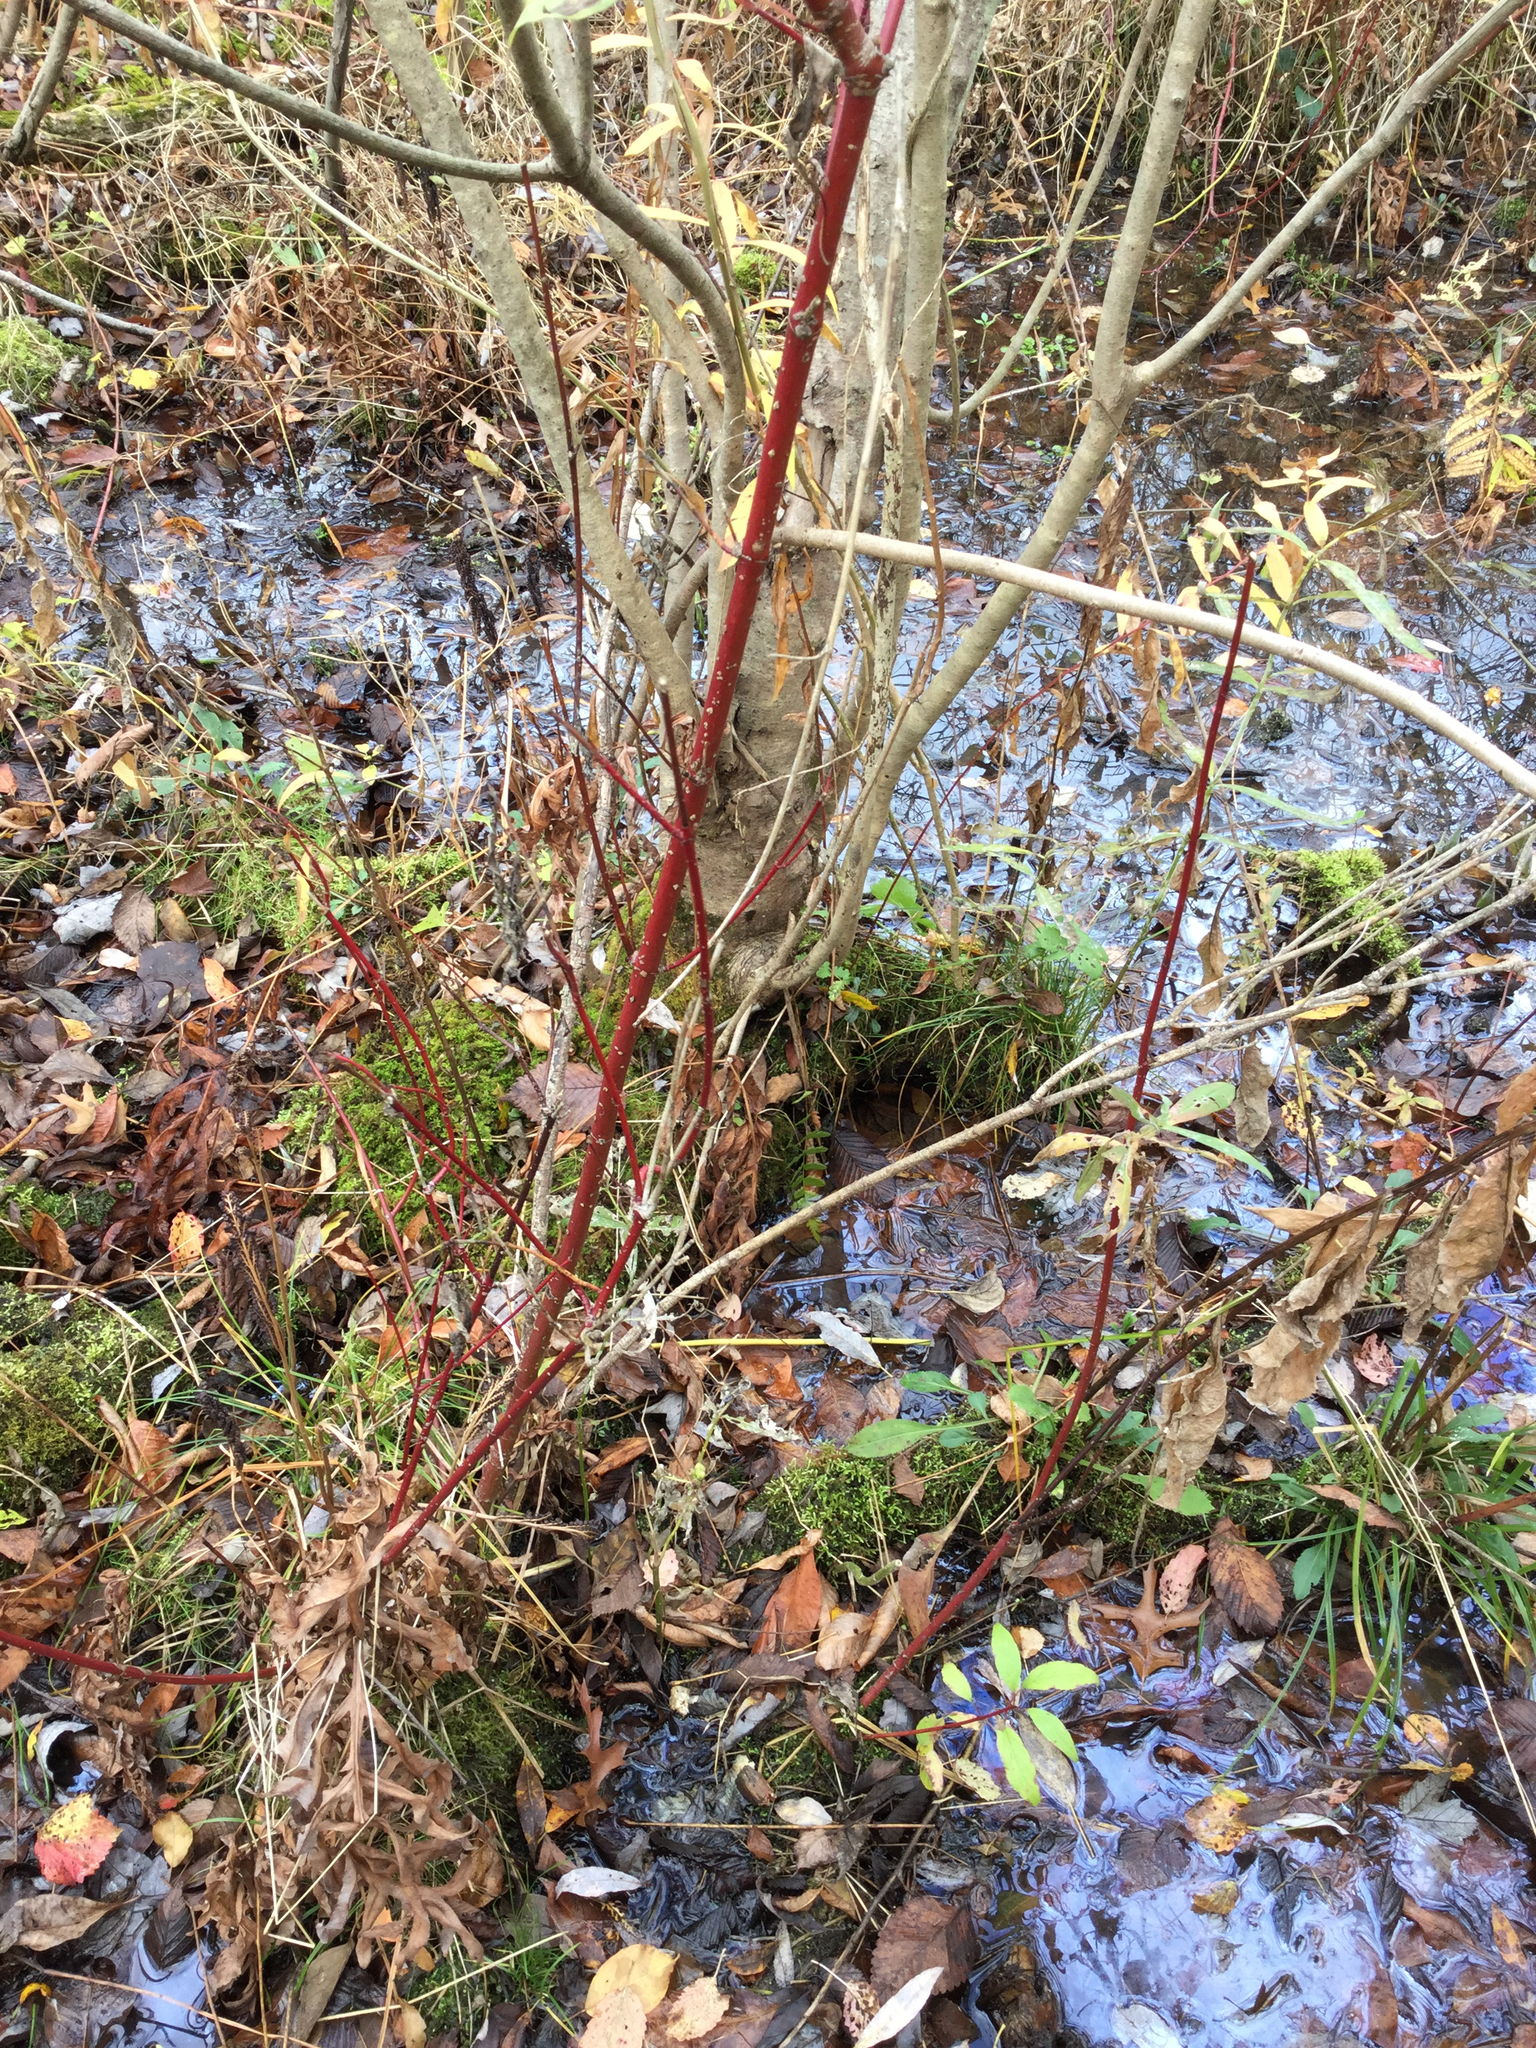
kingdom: Plantae
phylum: Tracheophyta
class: Magnoliopsida
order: Cornales
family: Cornaceae
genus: Cornus
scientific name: Cornus sericea
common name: Red-osier dogwood
